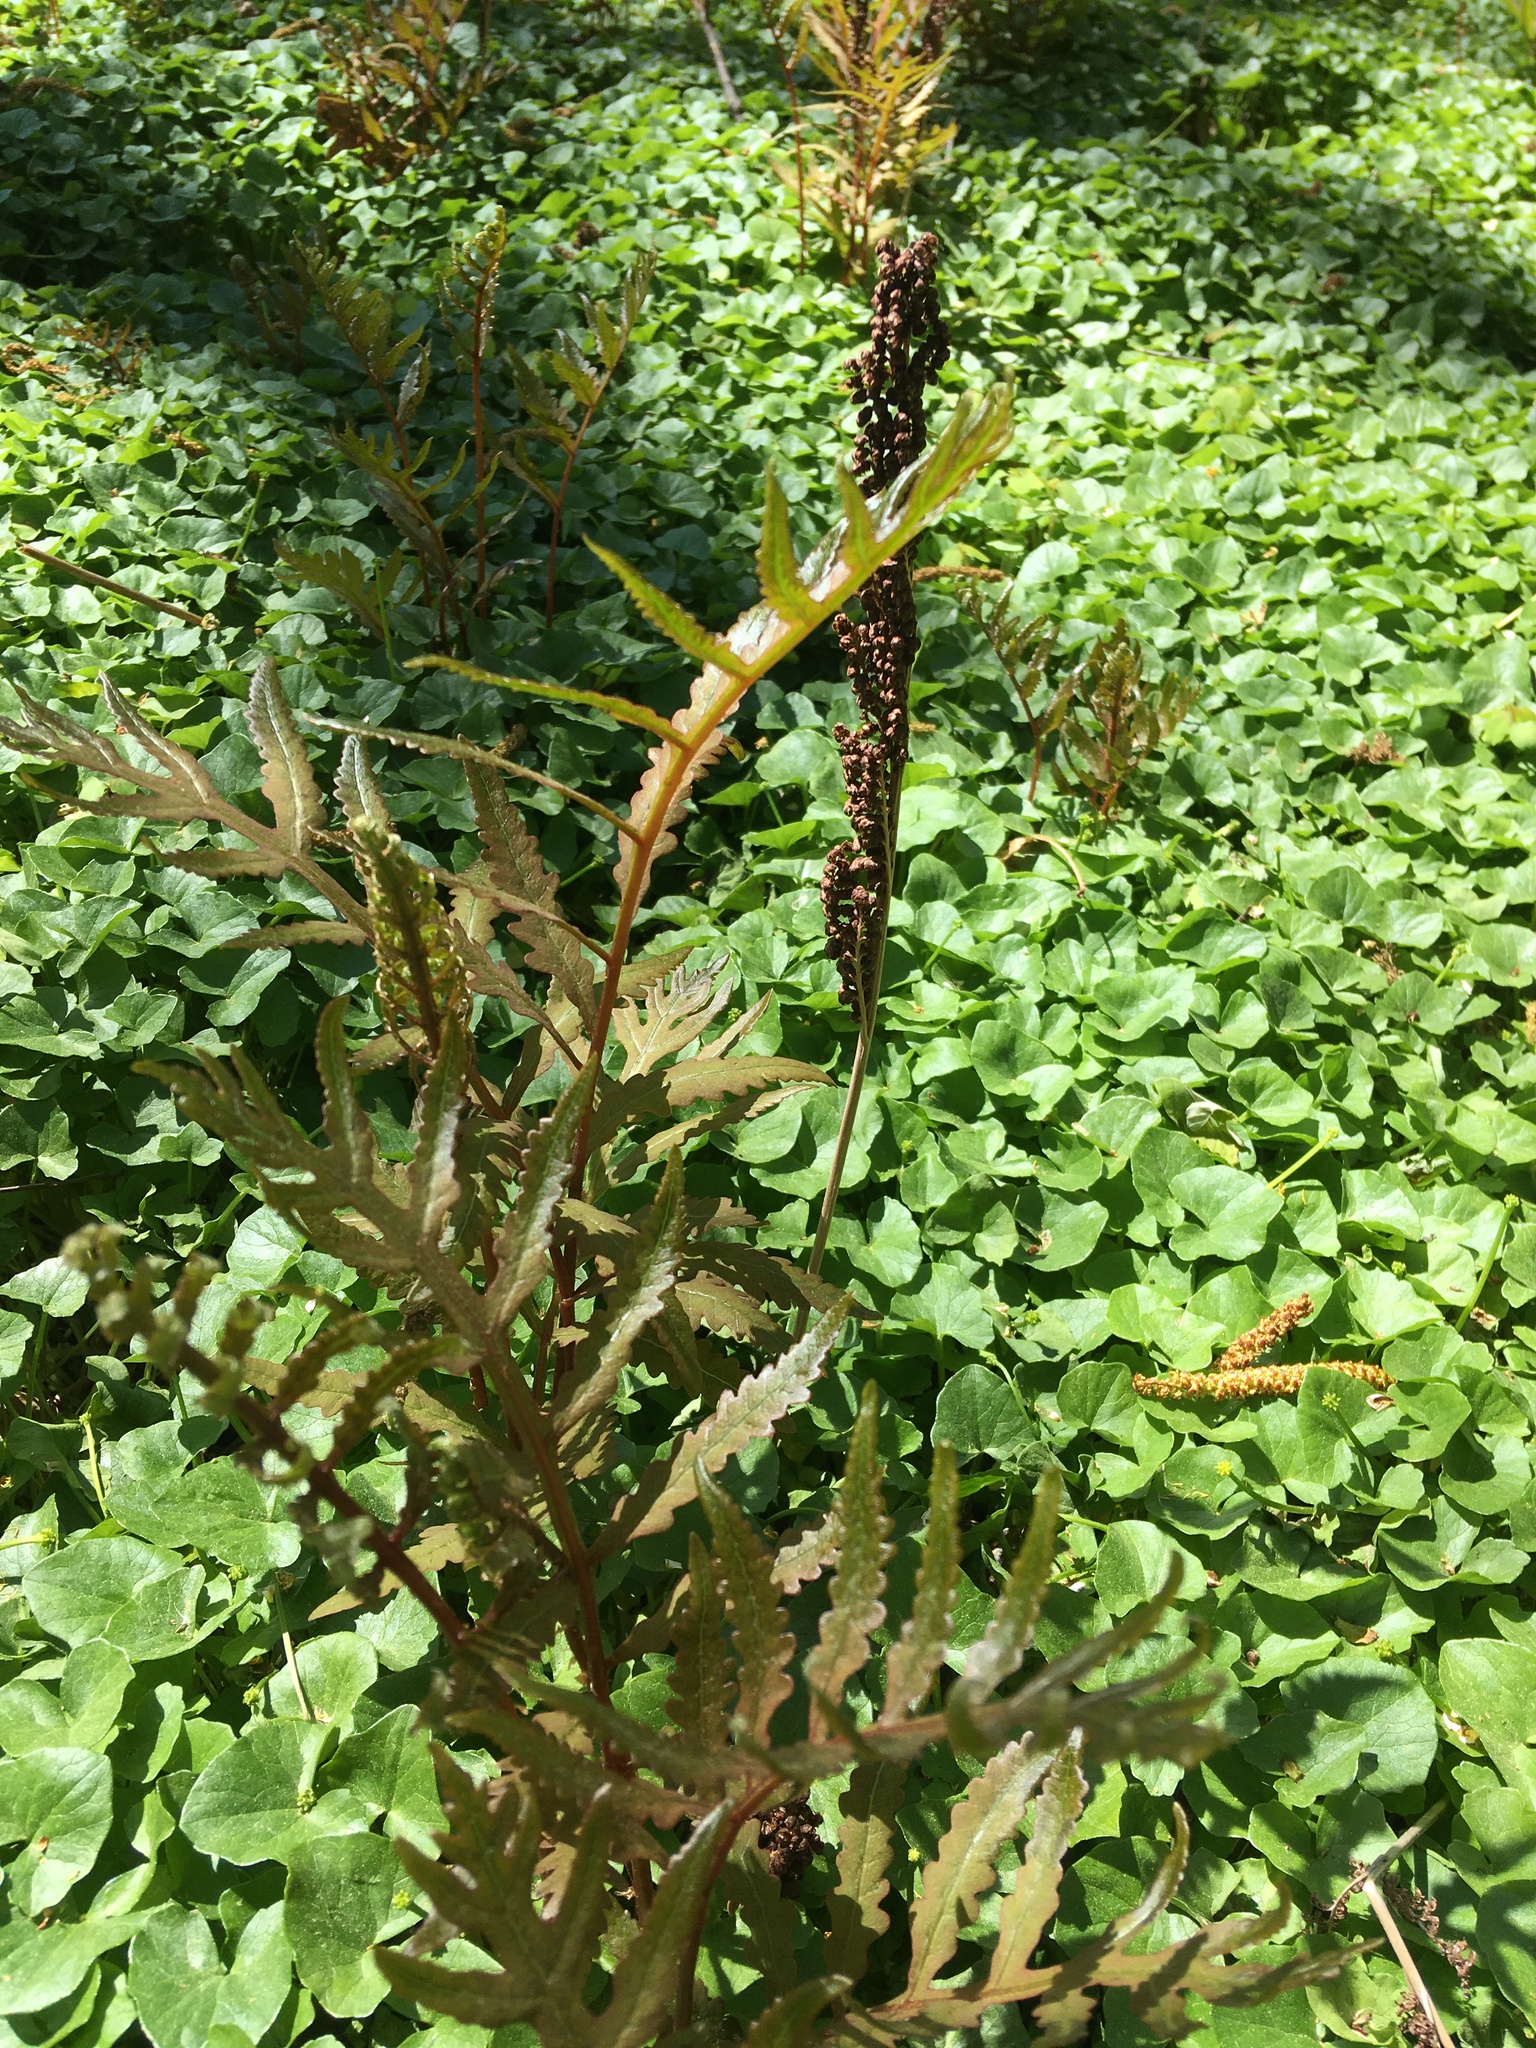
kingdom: Plantae
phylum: Tracheophyta
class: Polypodiopsida
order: Polypodiales
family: Onocleaceae
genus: Onoclea
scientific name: Onoclea sensibilis
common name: Sensitive fern
